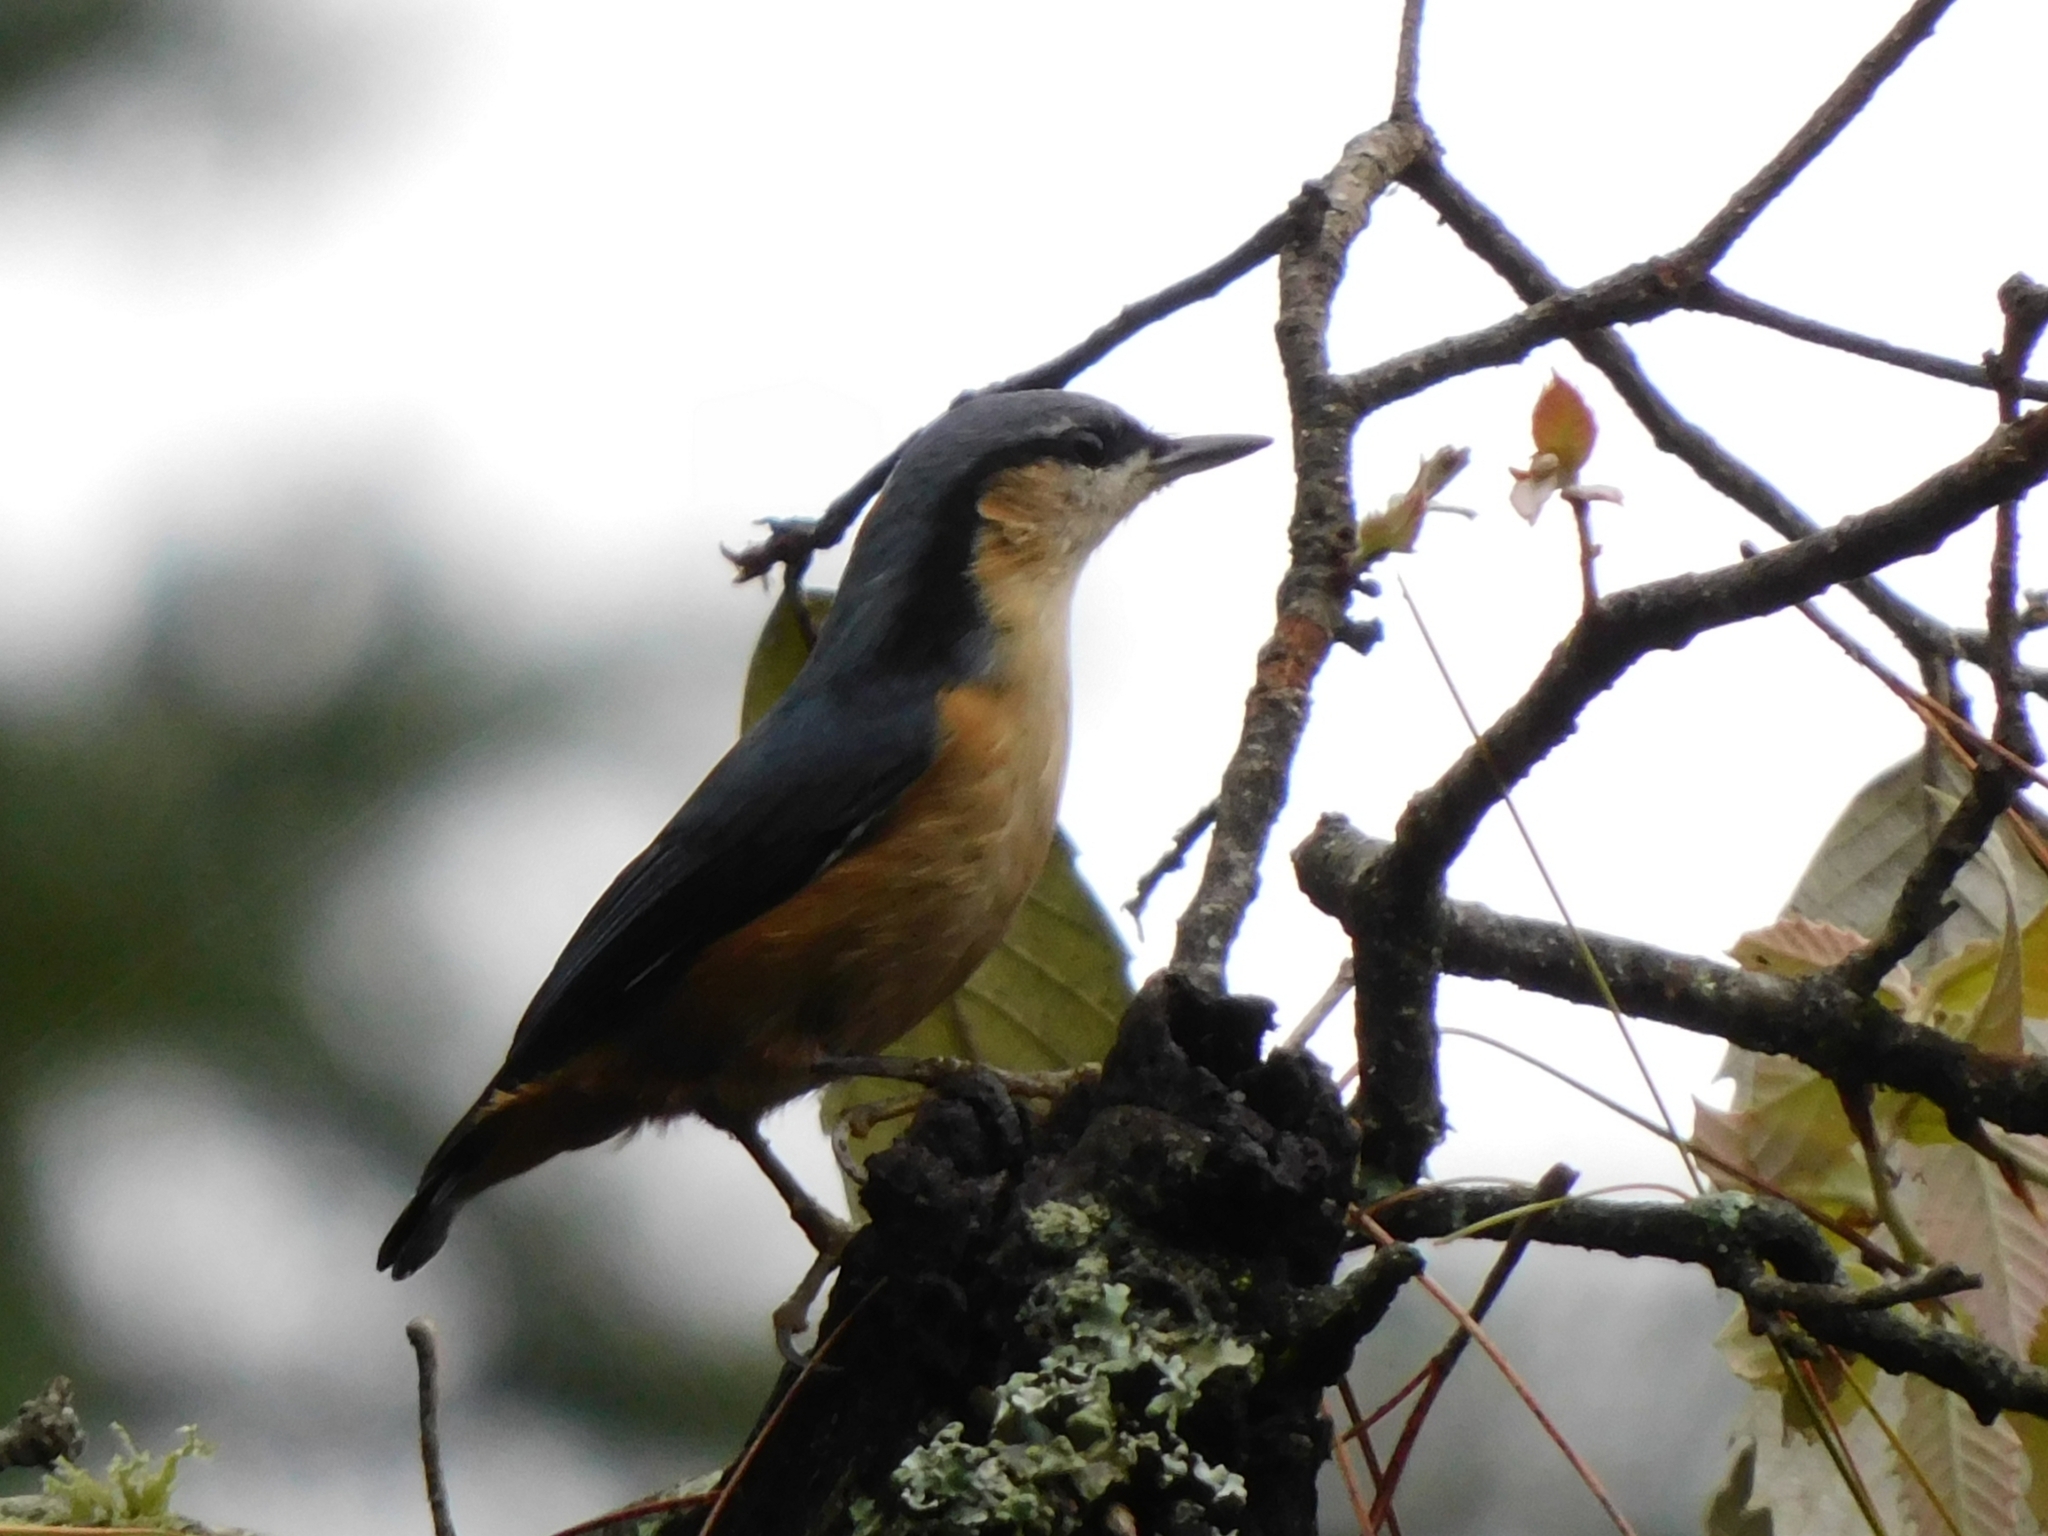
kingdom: Animalia
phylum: Chordata
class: Aves
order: Passeriformes
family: Sittidae
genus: Sitta
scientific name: Sitta himalayensis
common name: White-tailed nuthatch
